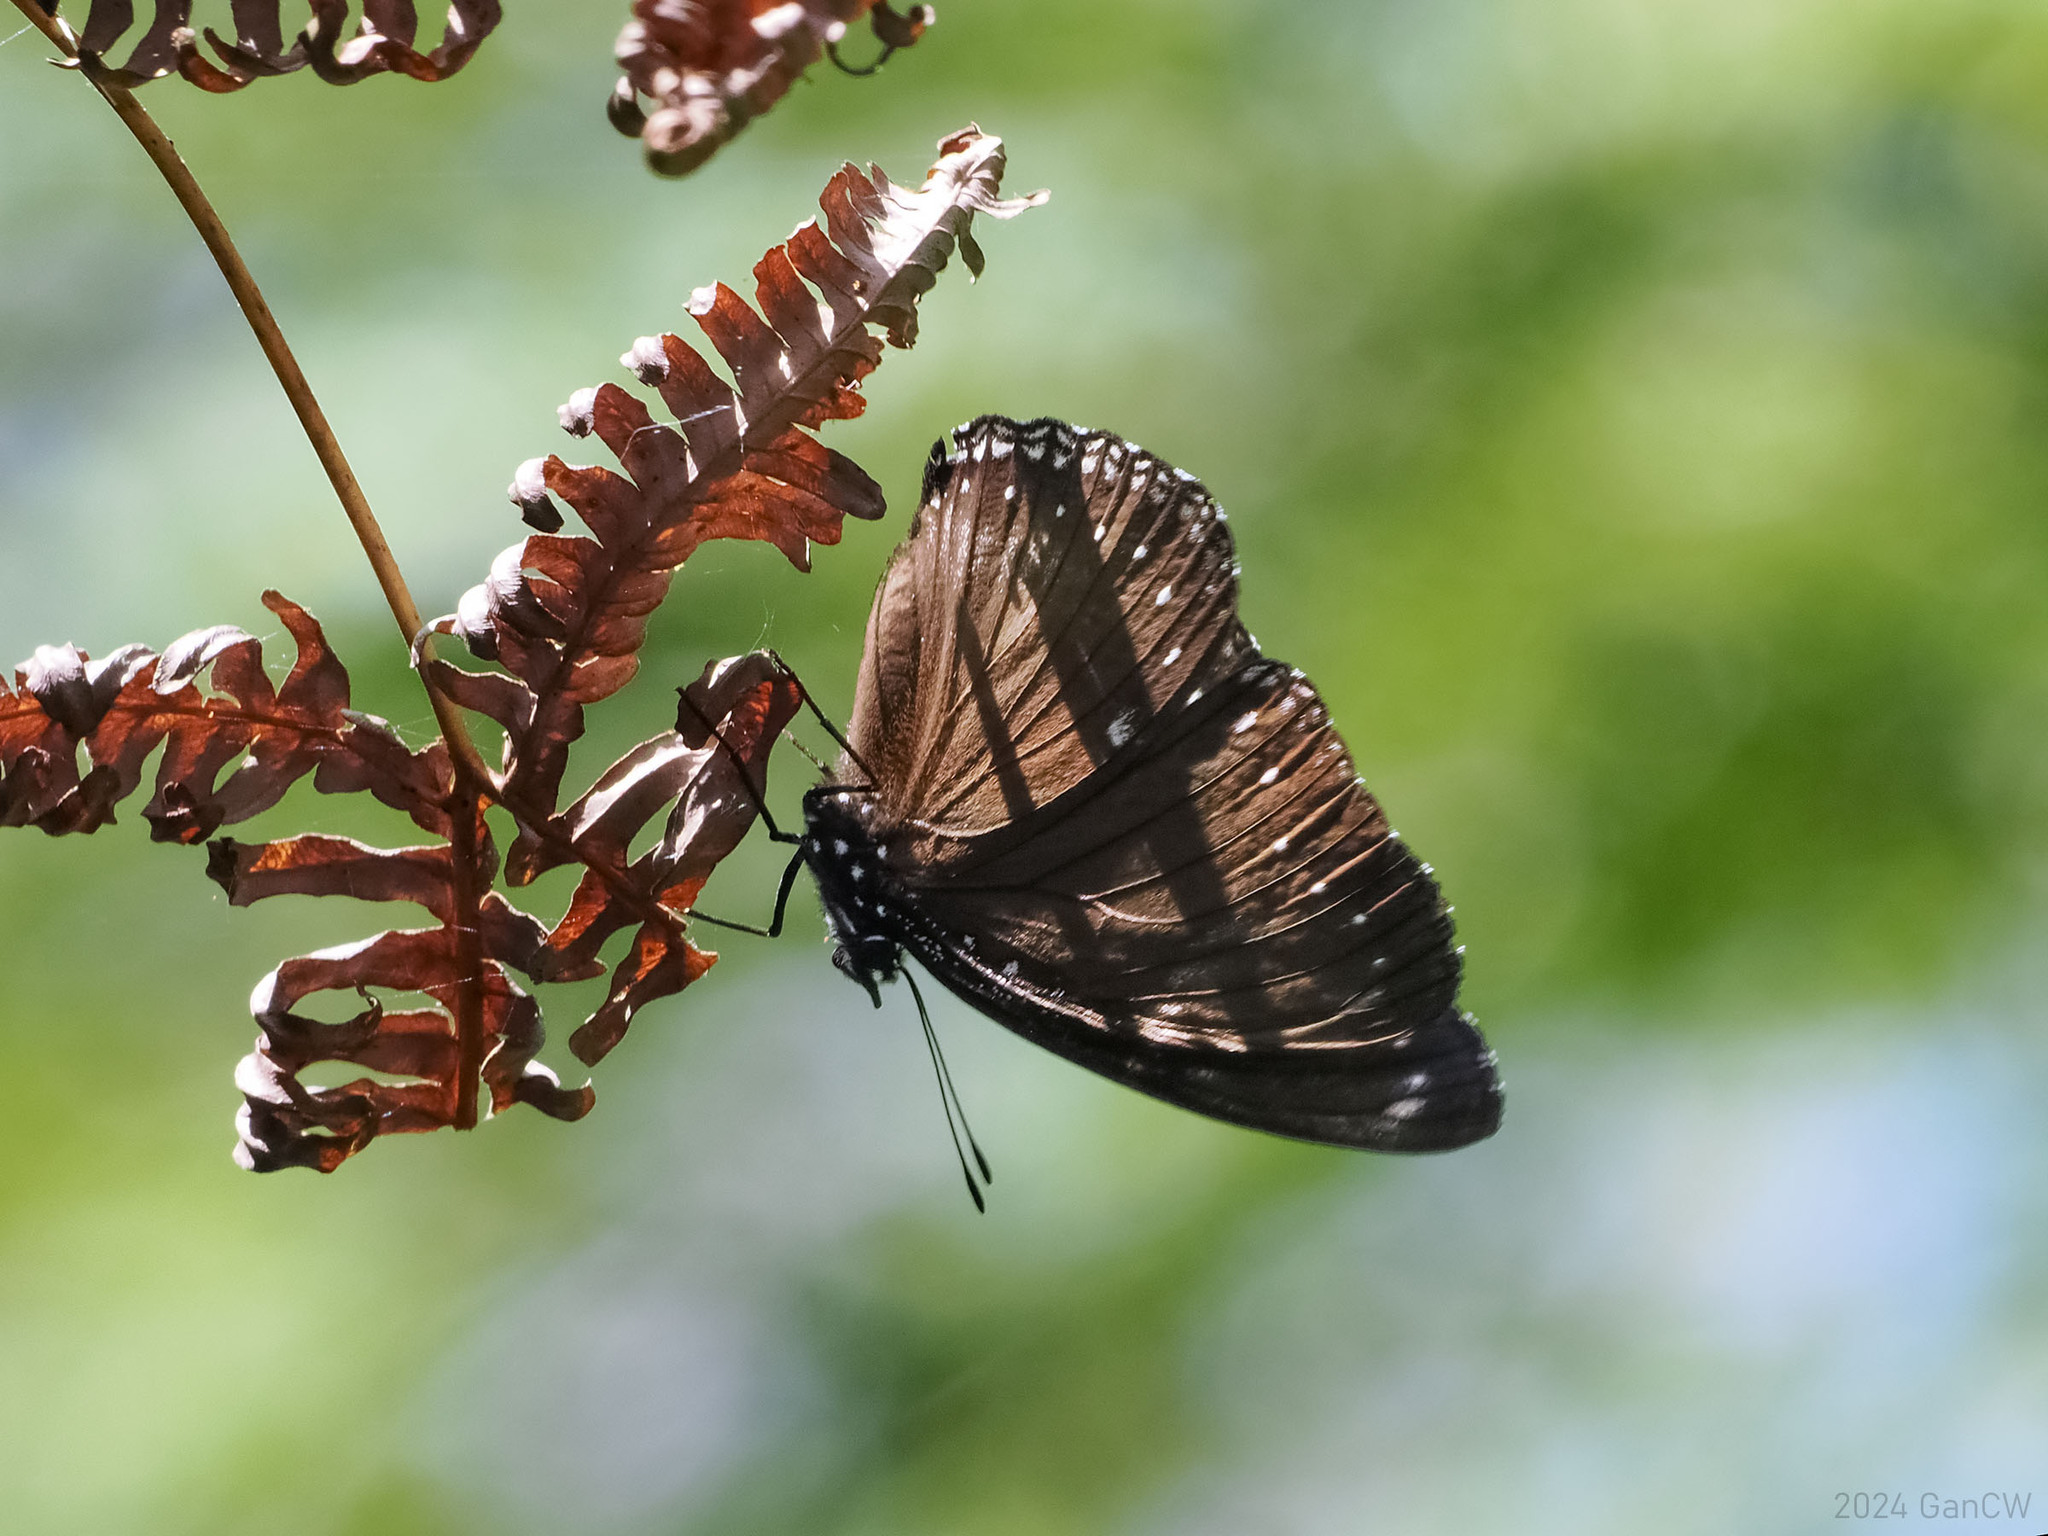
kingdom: Animalia
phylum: Arthropoda
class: Insecta
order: Lepidoptera
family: Nymphalidae
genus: Hypolimnas
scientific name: Hypolimnas anomala
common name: Malayan eggfly
